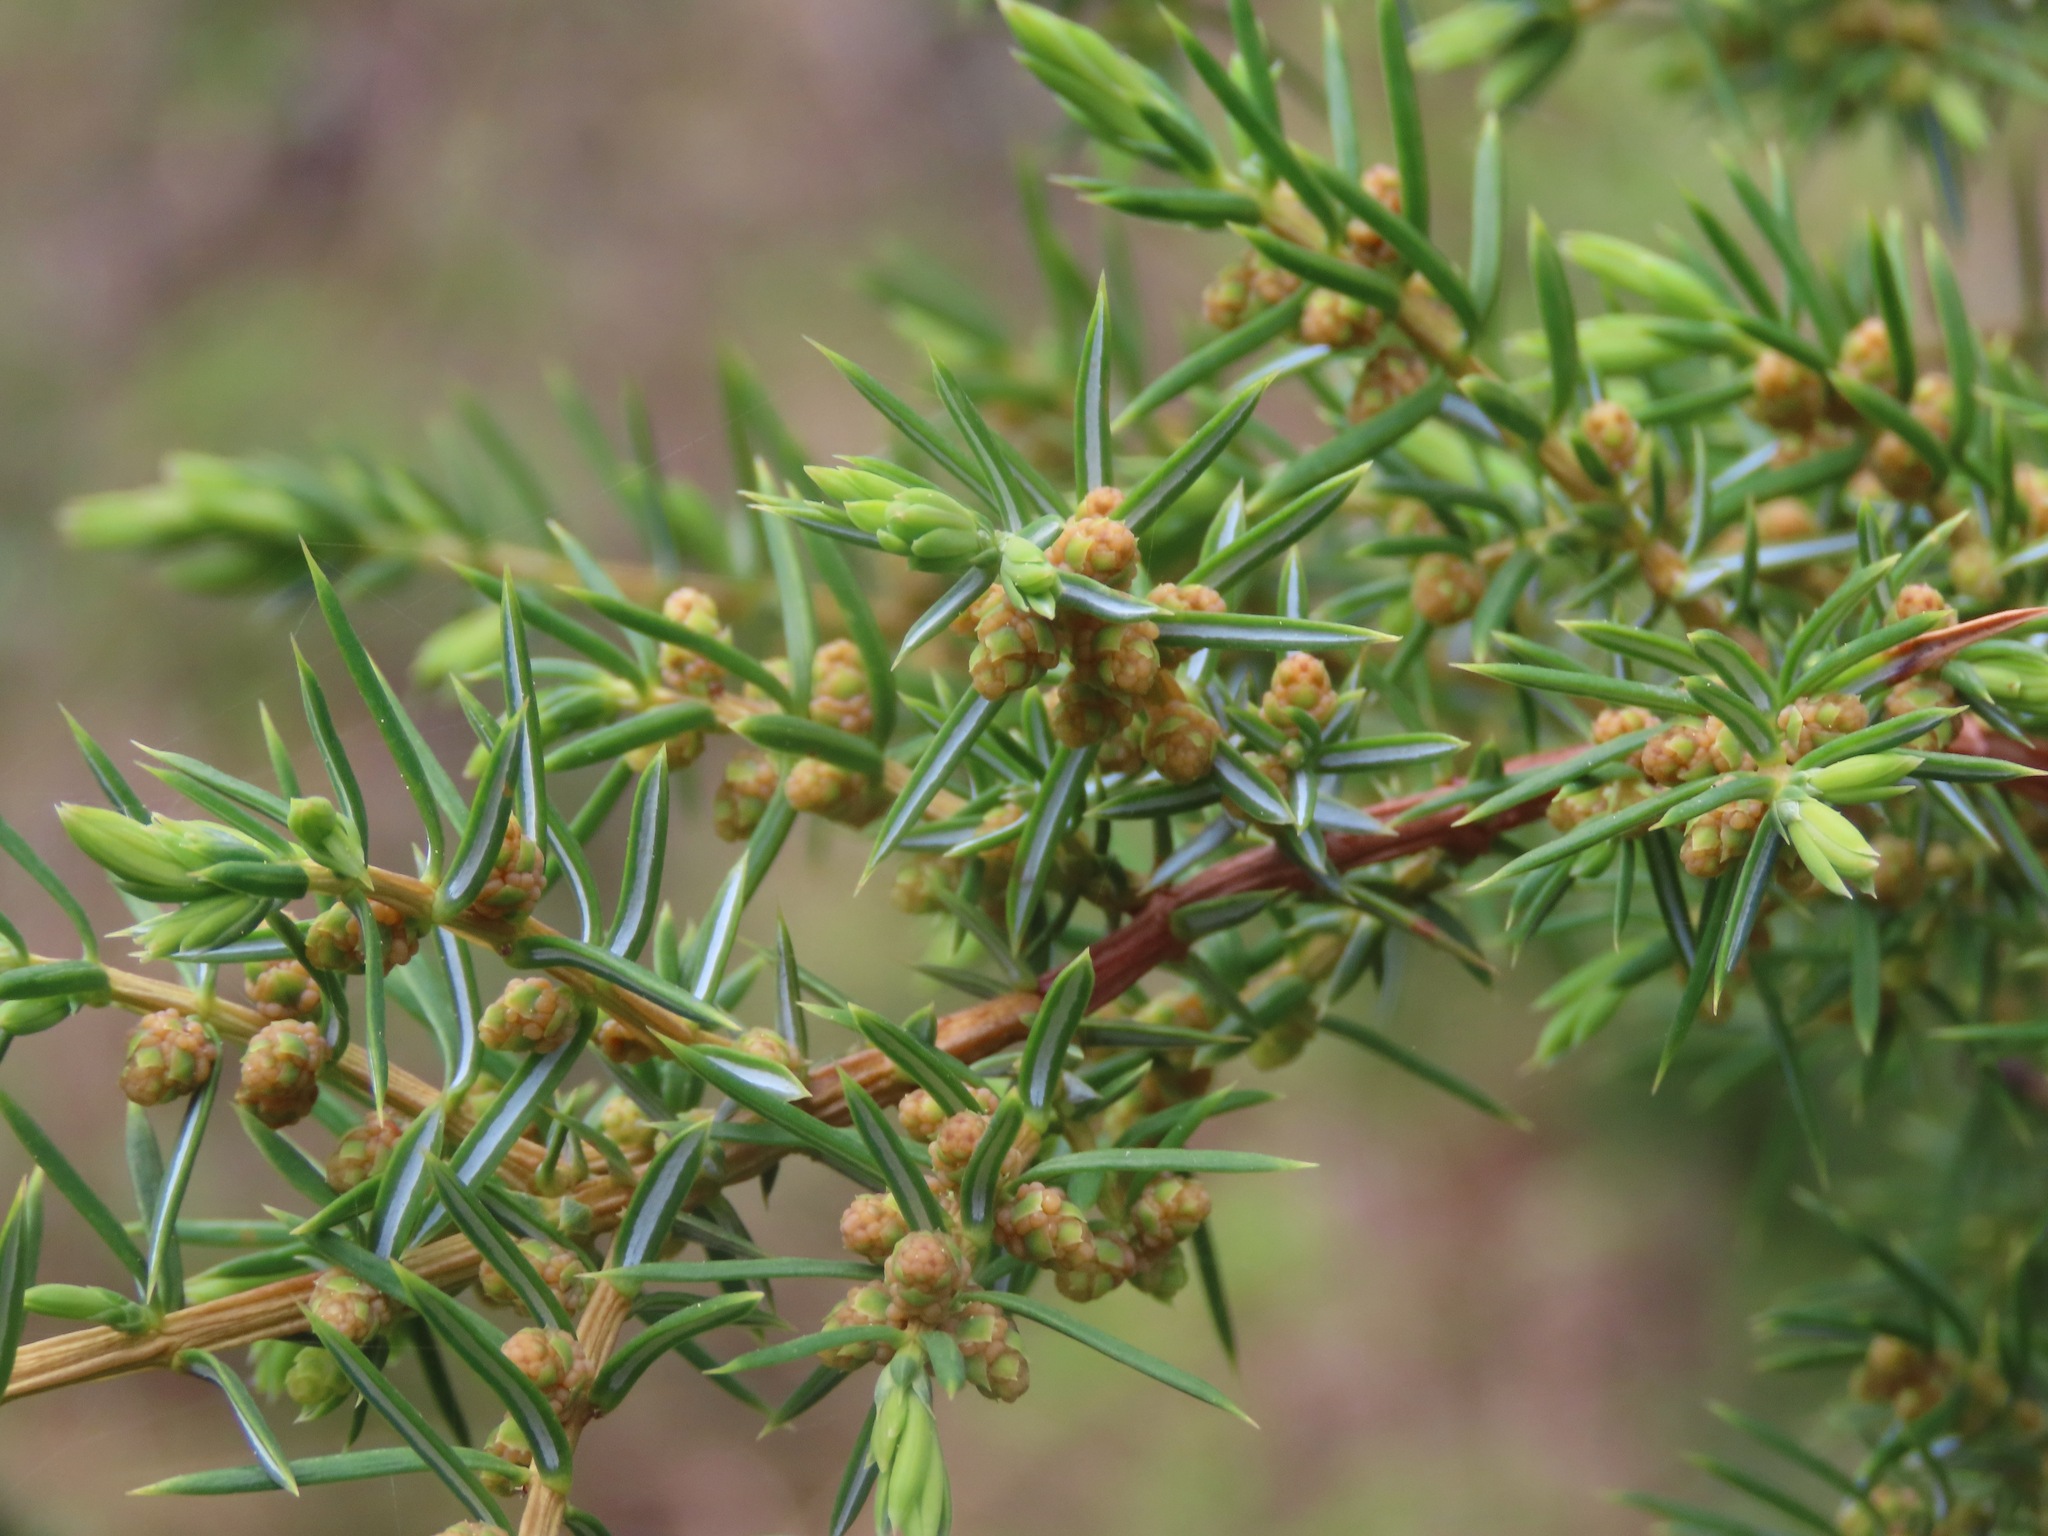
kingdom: Plantae
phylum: Tracheophyta
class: Pinopsida
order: Pinales
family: Cupressaceae
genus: Juniperus
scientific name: Juniperus communis
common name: Common juniper
